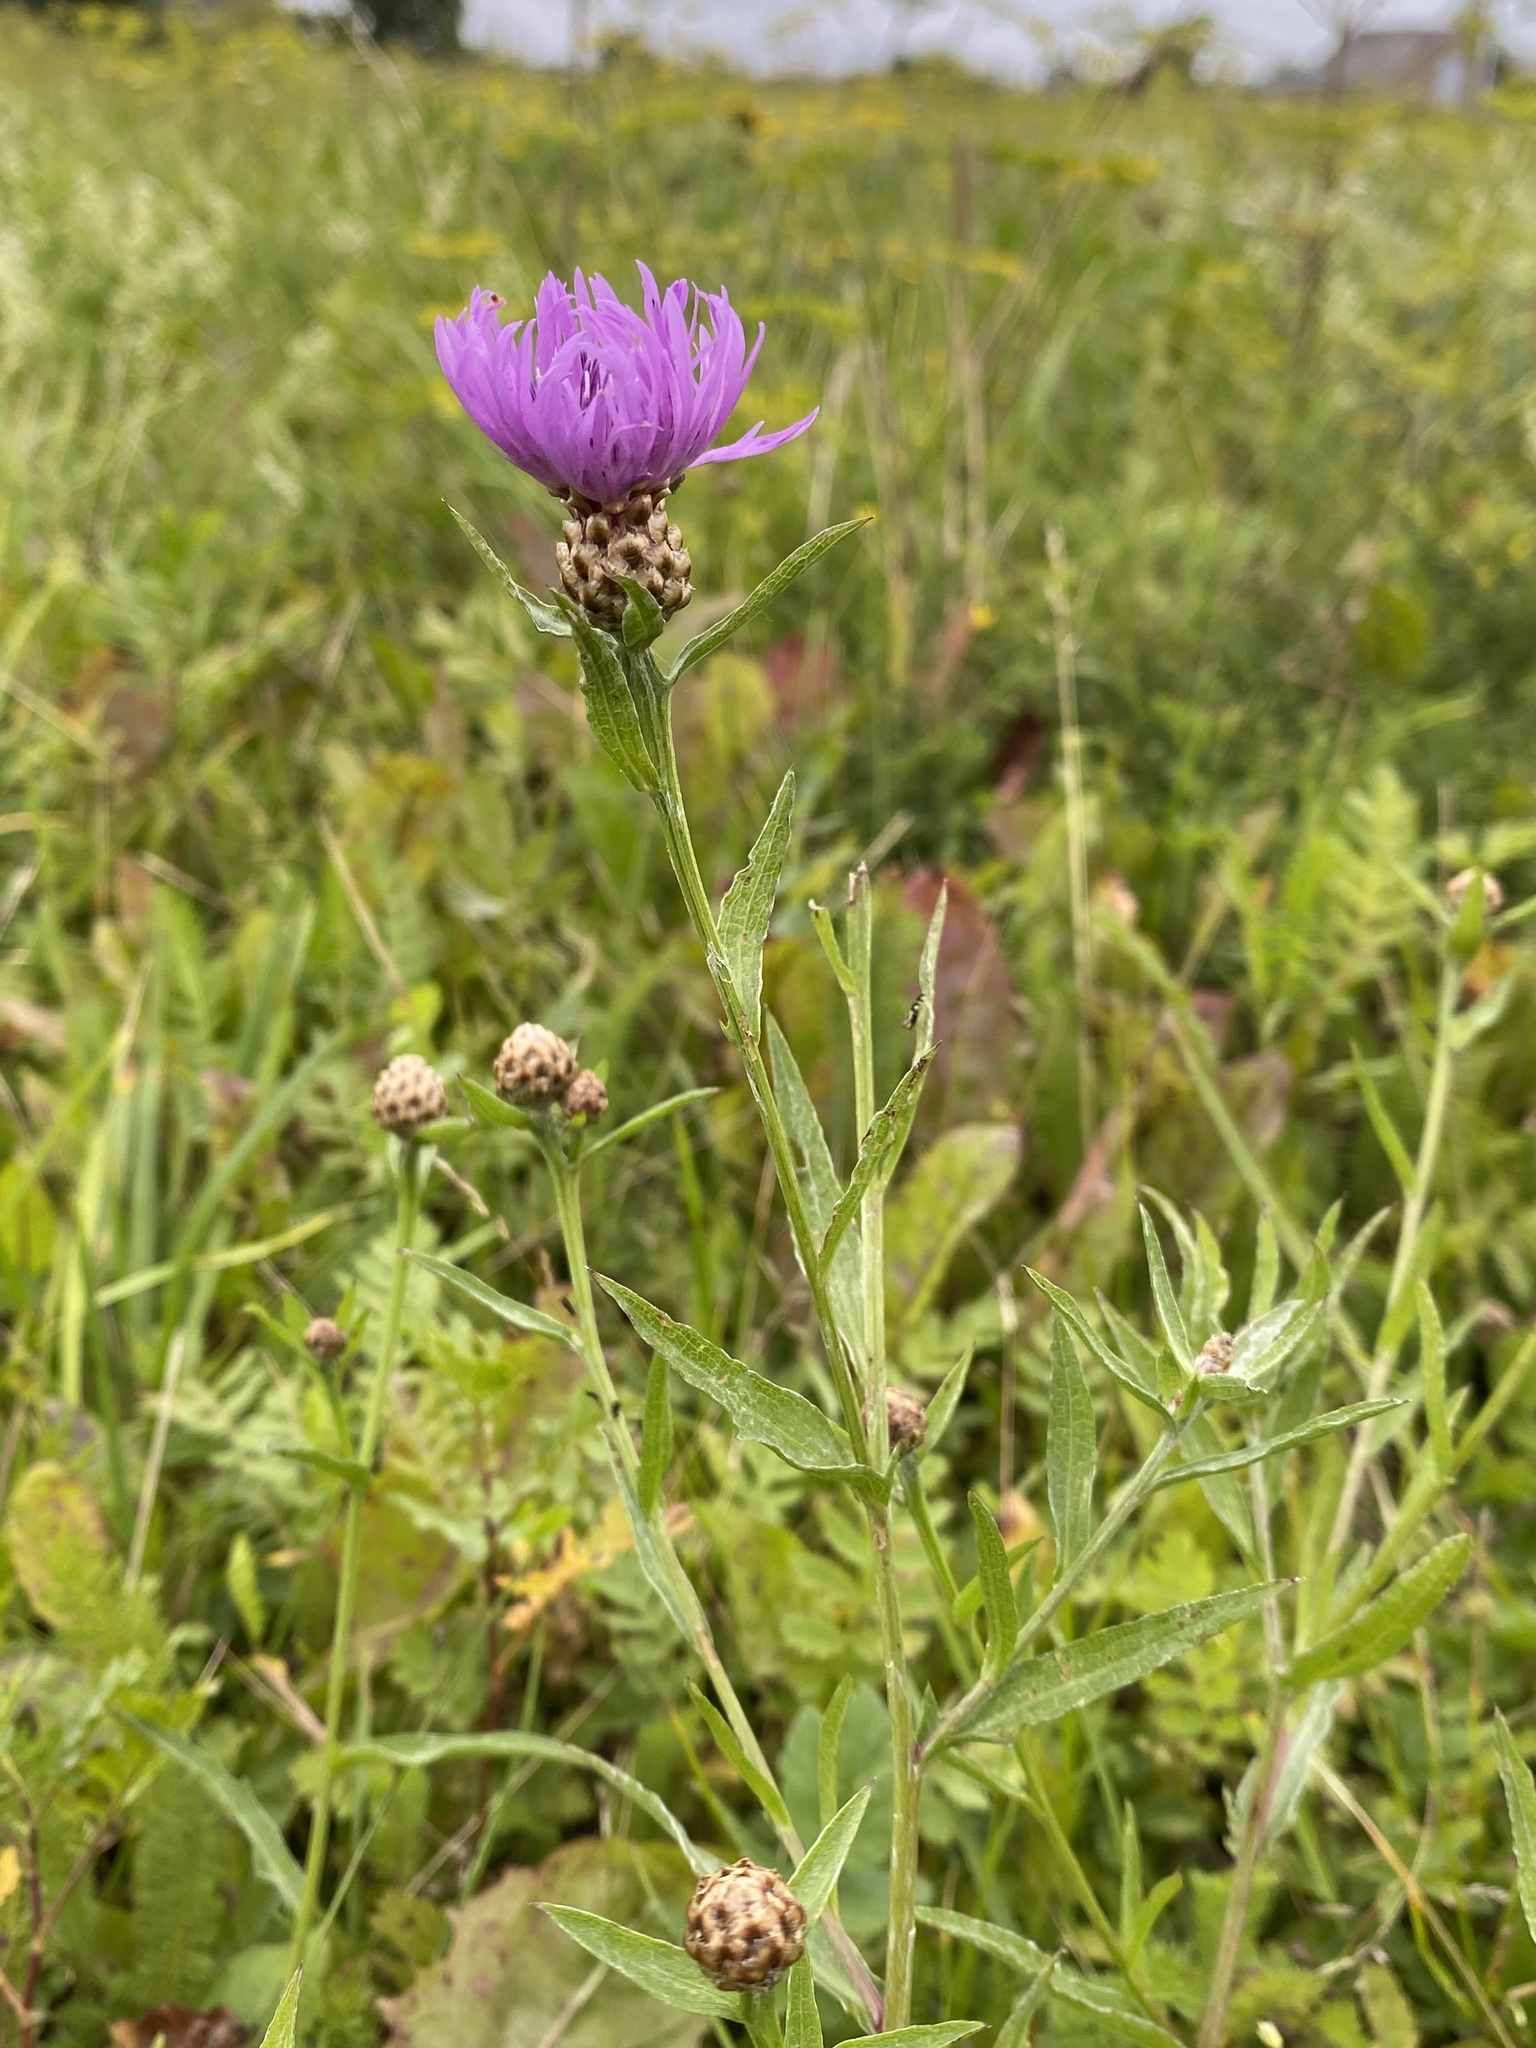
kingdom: Plantae
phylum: Tracheophyta
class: Magnoliopsida
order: Asterales
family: Asteraceae
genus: Centaurea
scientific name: Centaurea jacea
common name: Brown knapweed
